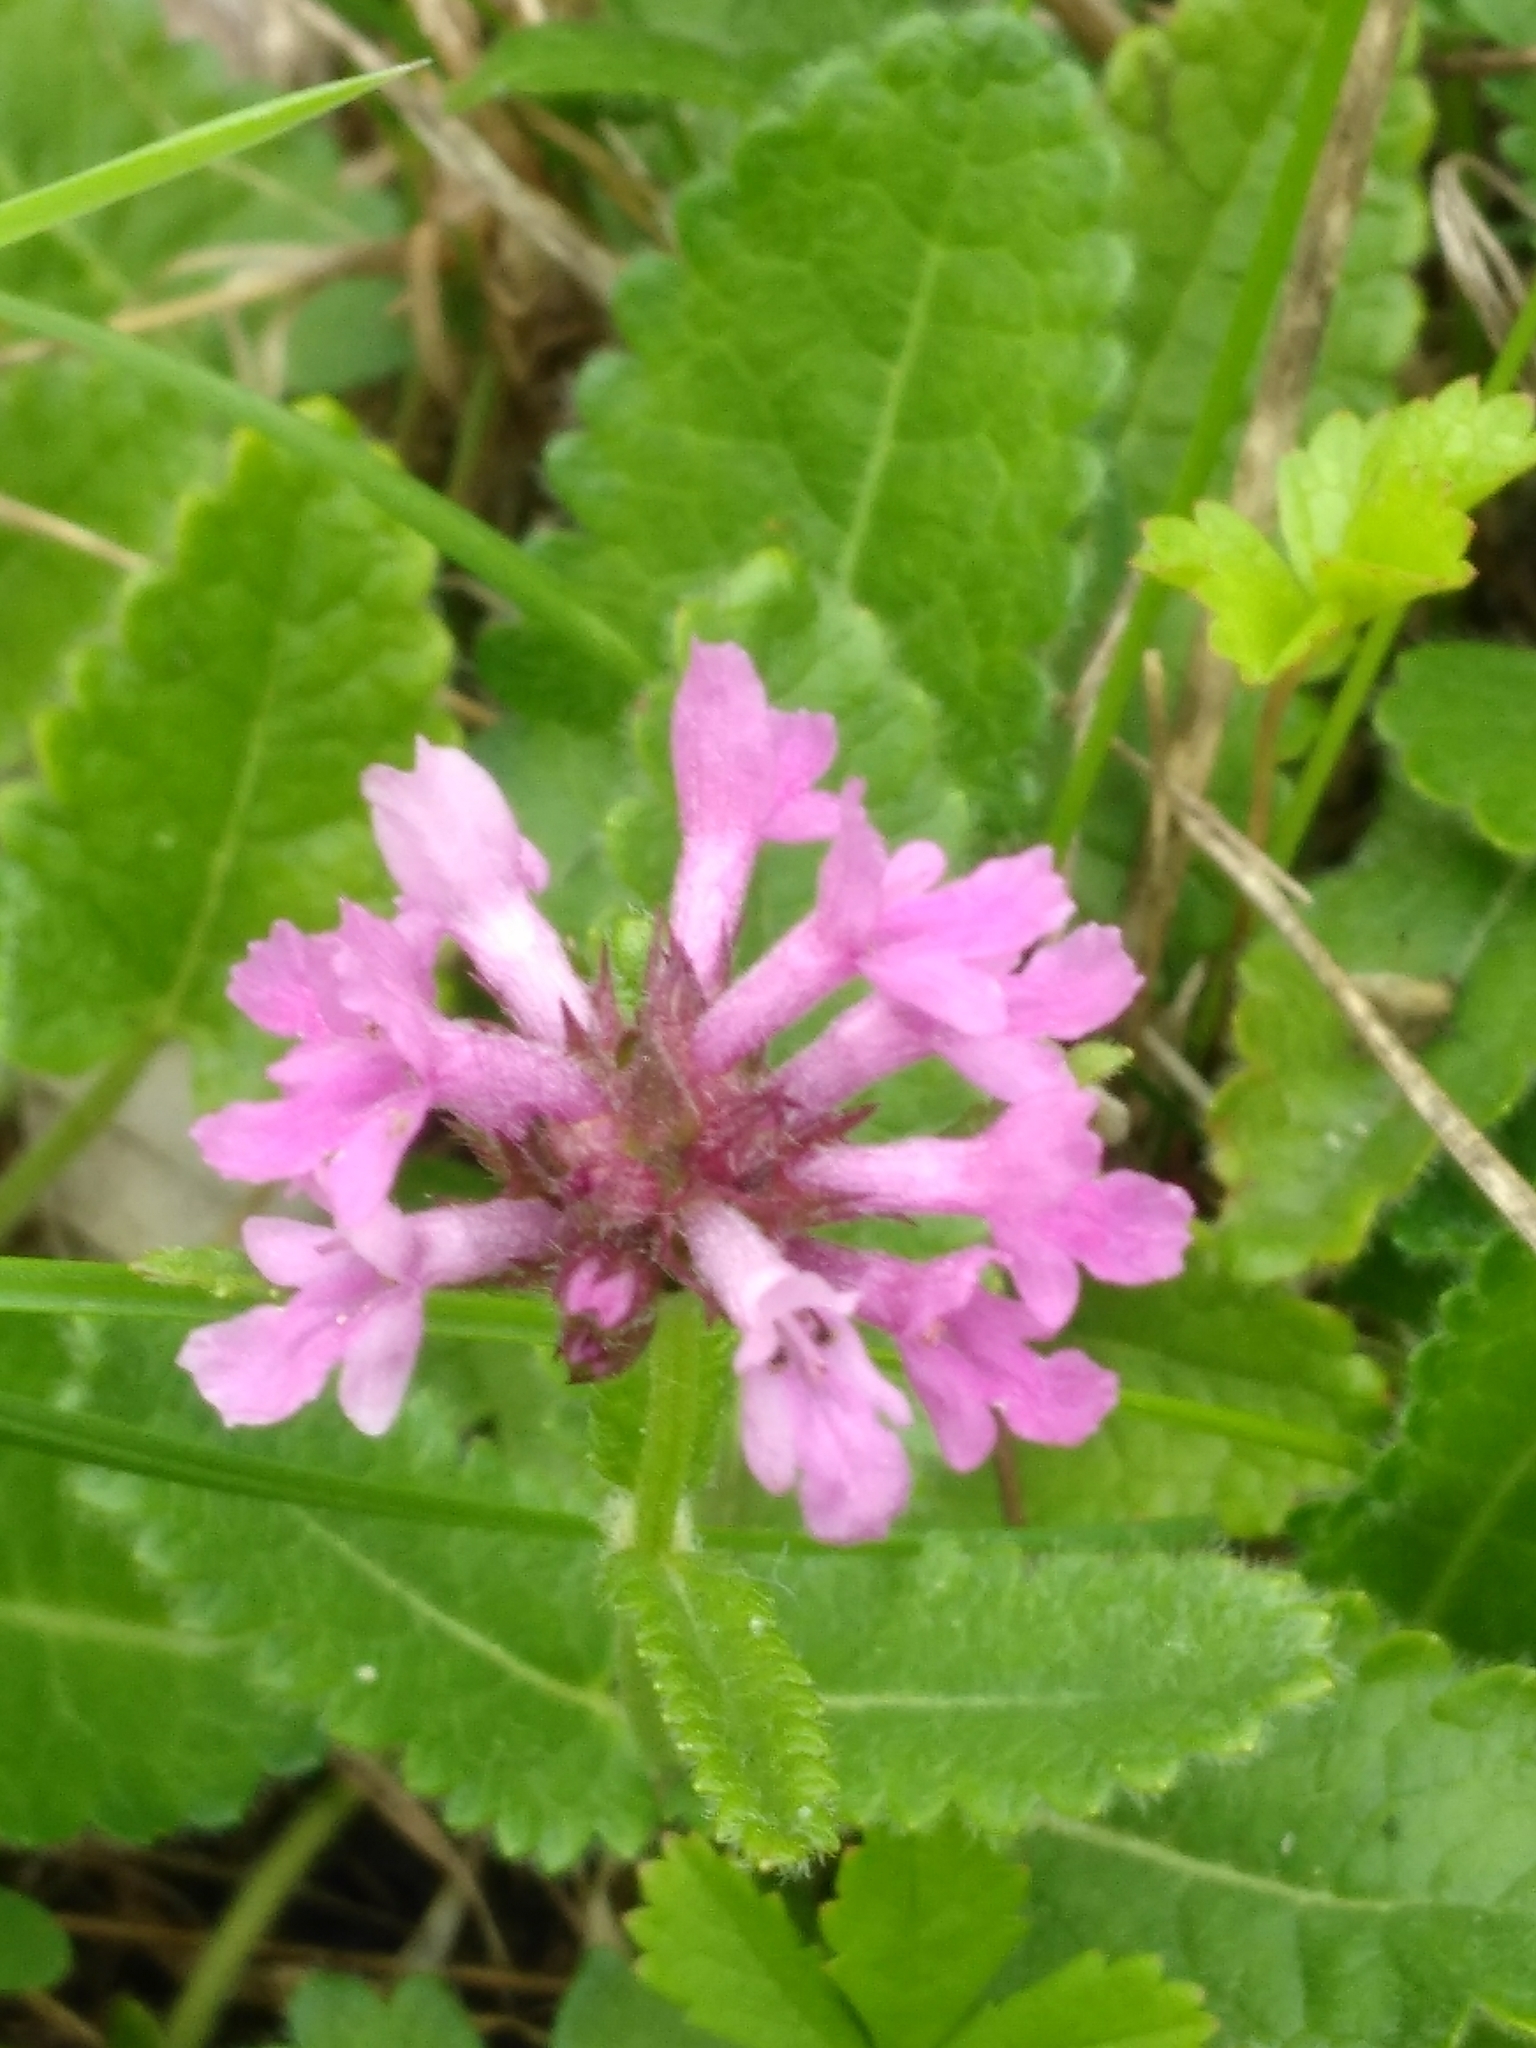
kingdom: Plantae
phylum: Tracheophyta
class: Magnoliopsida
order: Lamiales
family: Lamiaceae
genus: Betonica
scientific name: Betonica officinalis
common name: Bishop's-wort
